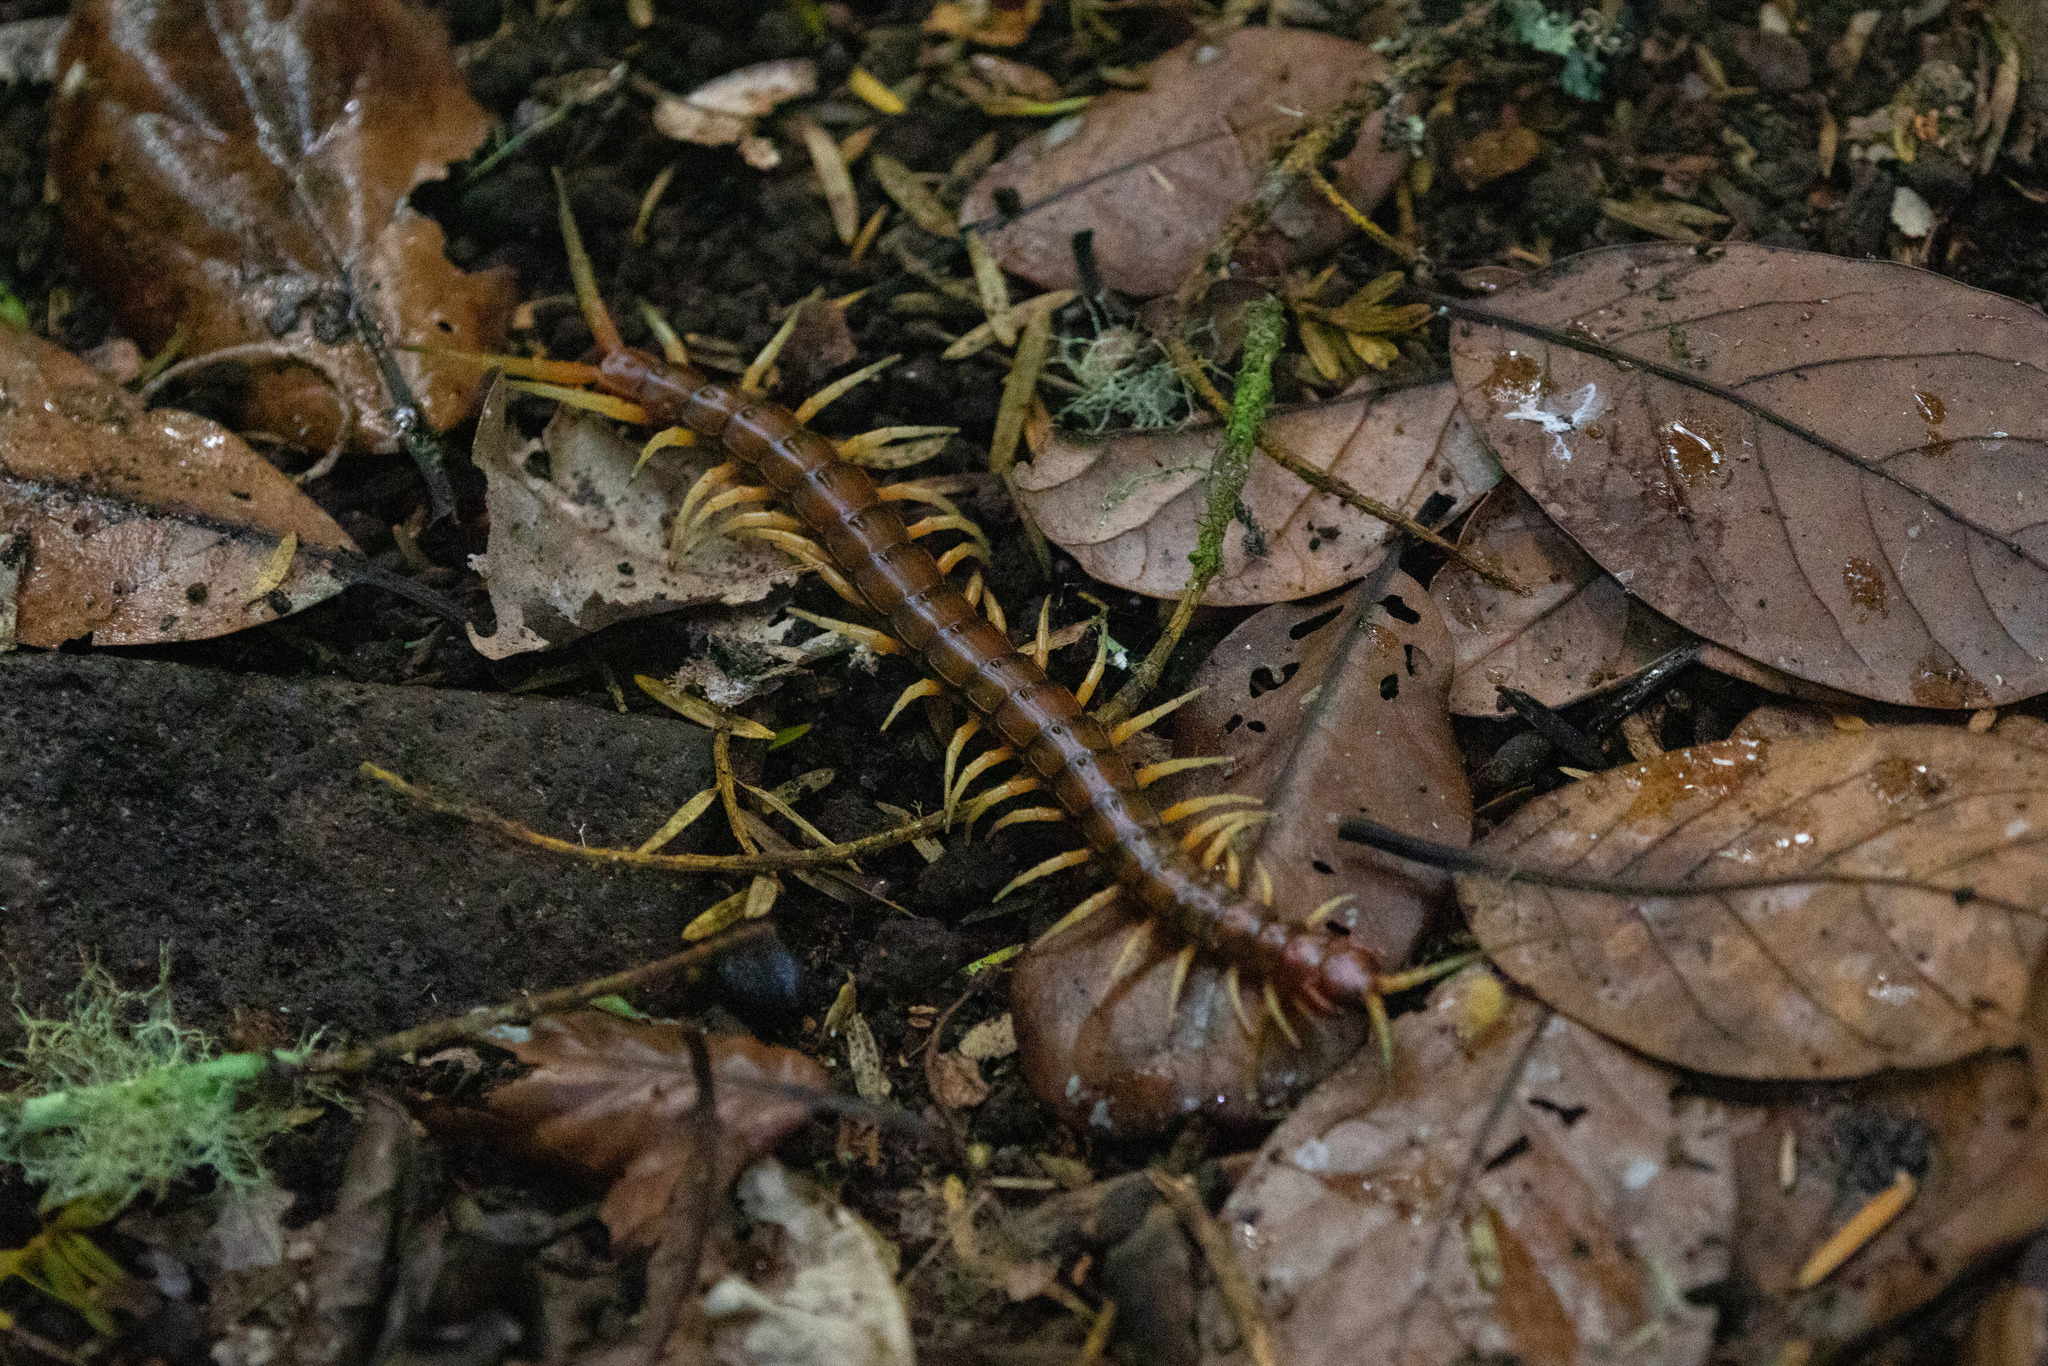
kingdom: Animalia
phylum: Arthropoda
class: Chilopoda
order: Scolopendromorpha
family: Scolopendridae
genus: Cormocephalus
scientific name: Cormocephalus rubriceps
